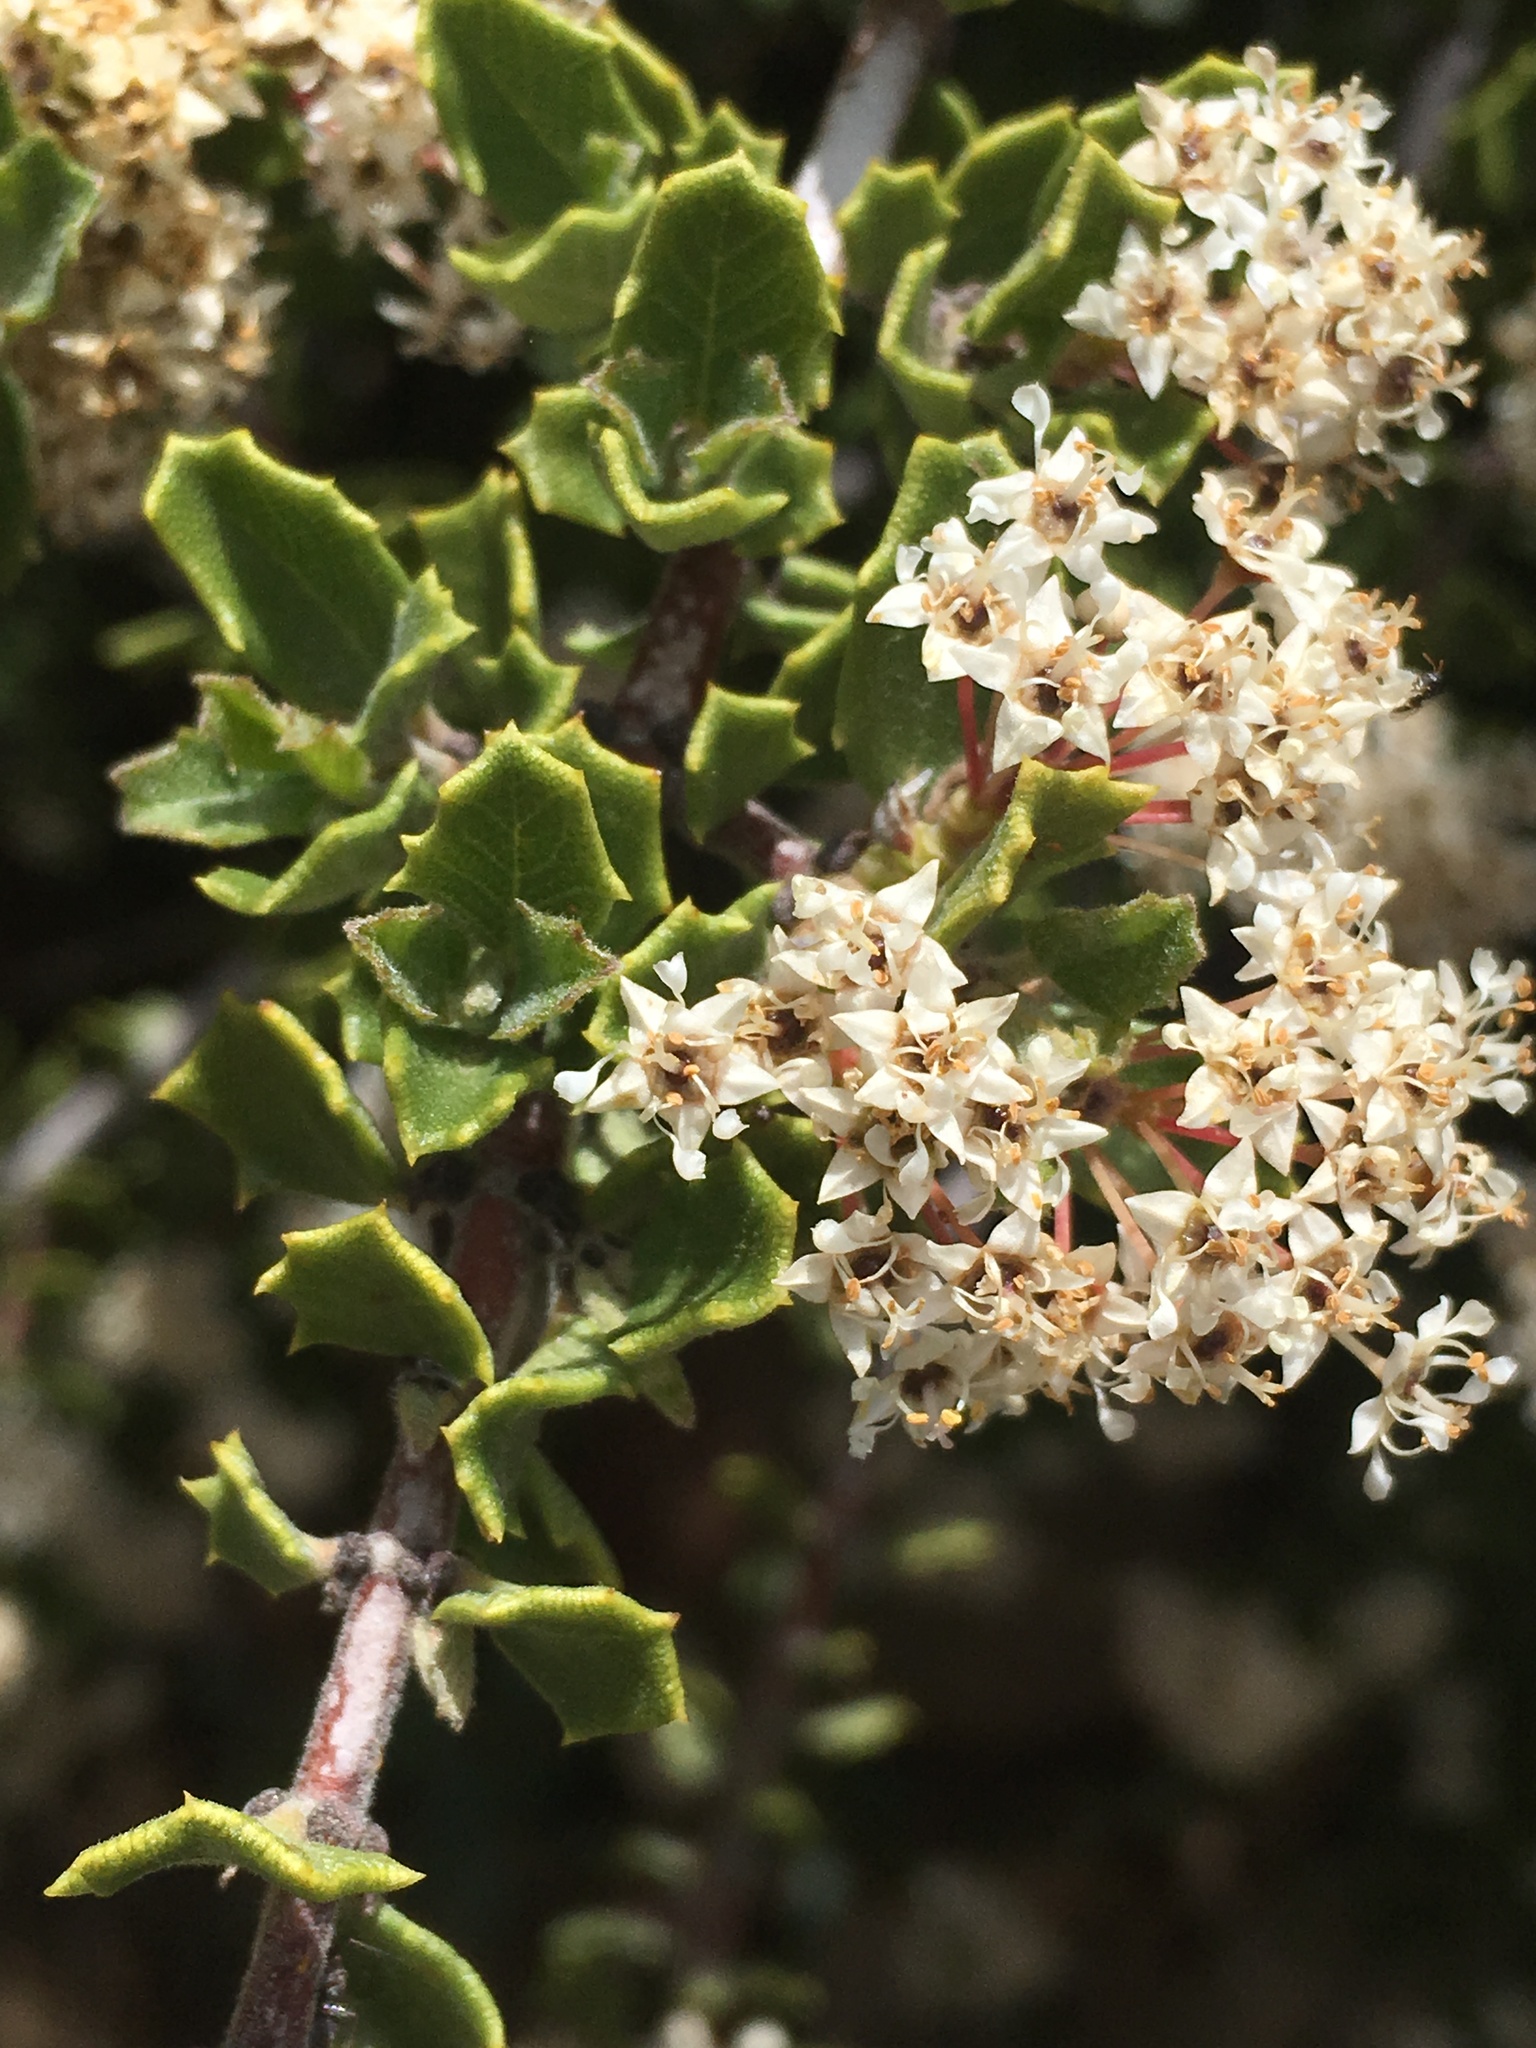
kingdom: Plantae
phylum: Tracheophyta
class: Magnoliopsida
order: Rosales
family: Rhamnaceae
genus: Ceanothus
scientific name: Ceanothus perplexans
